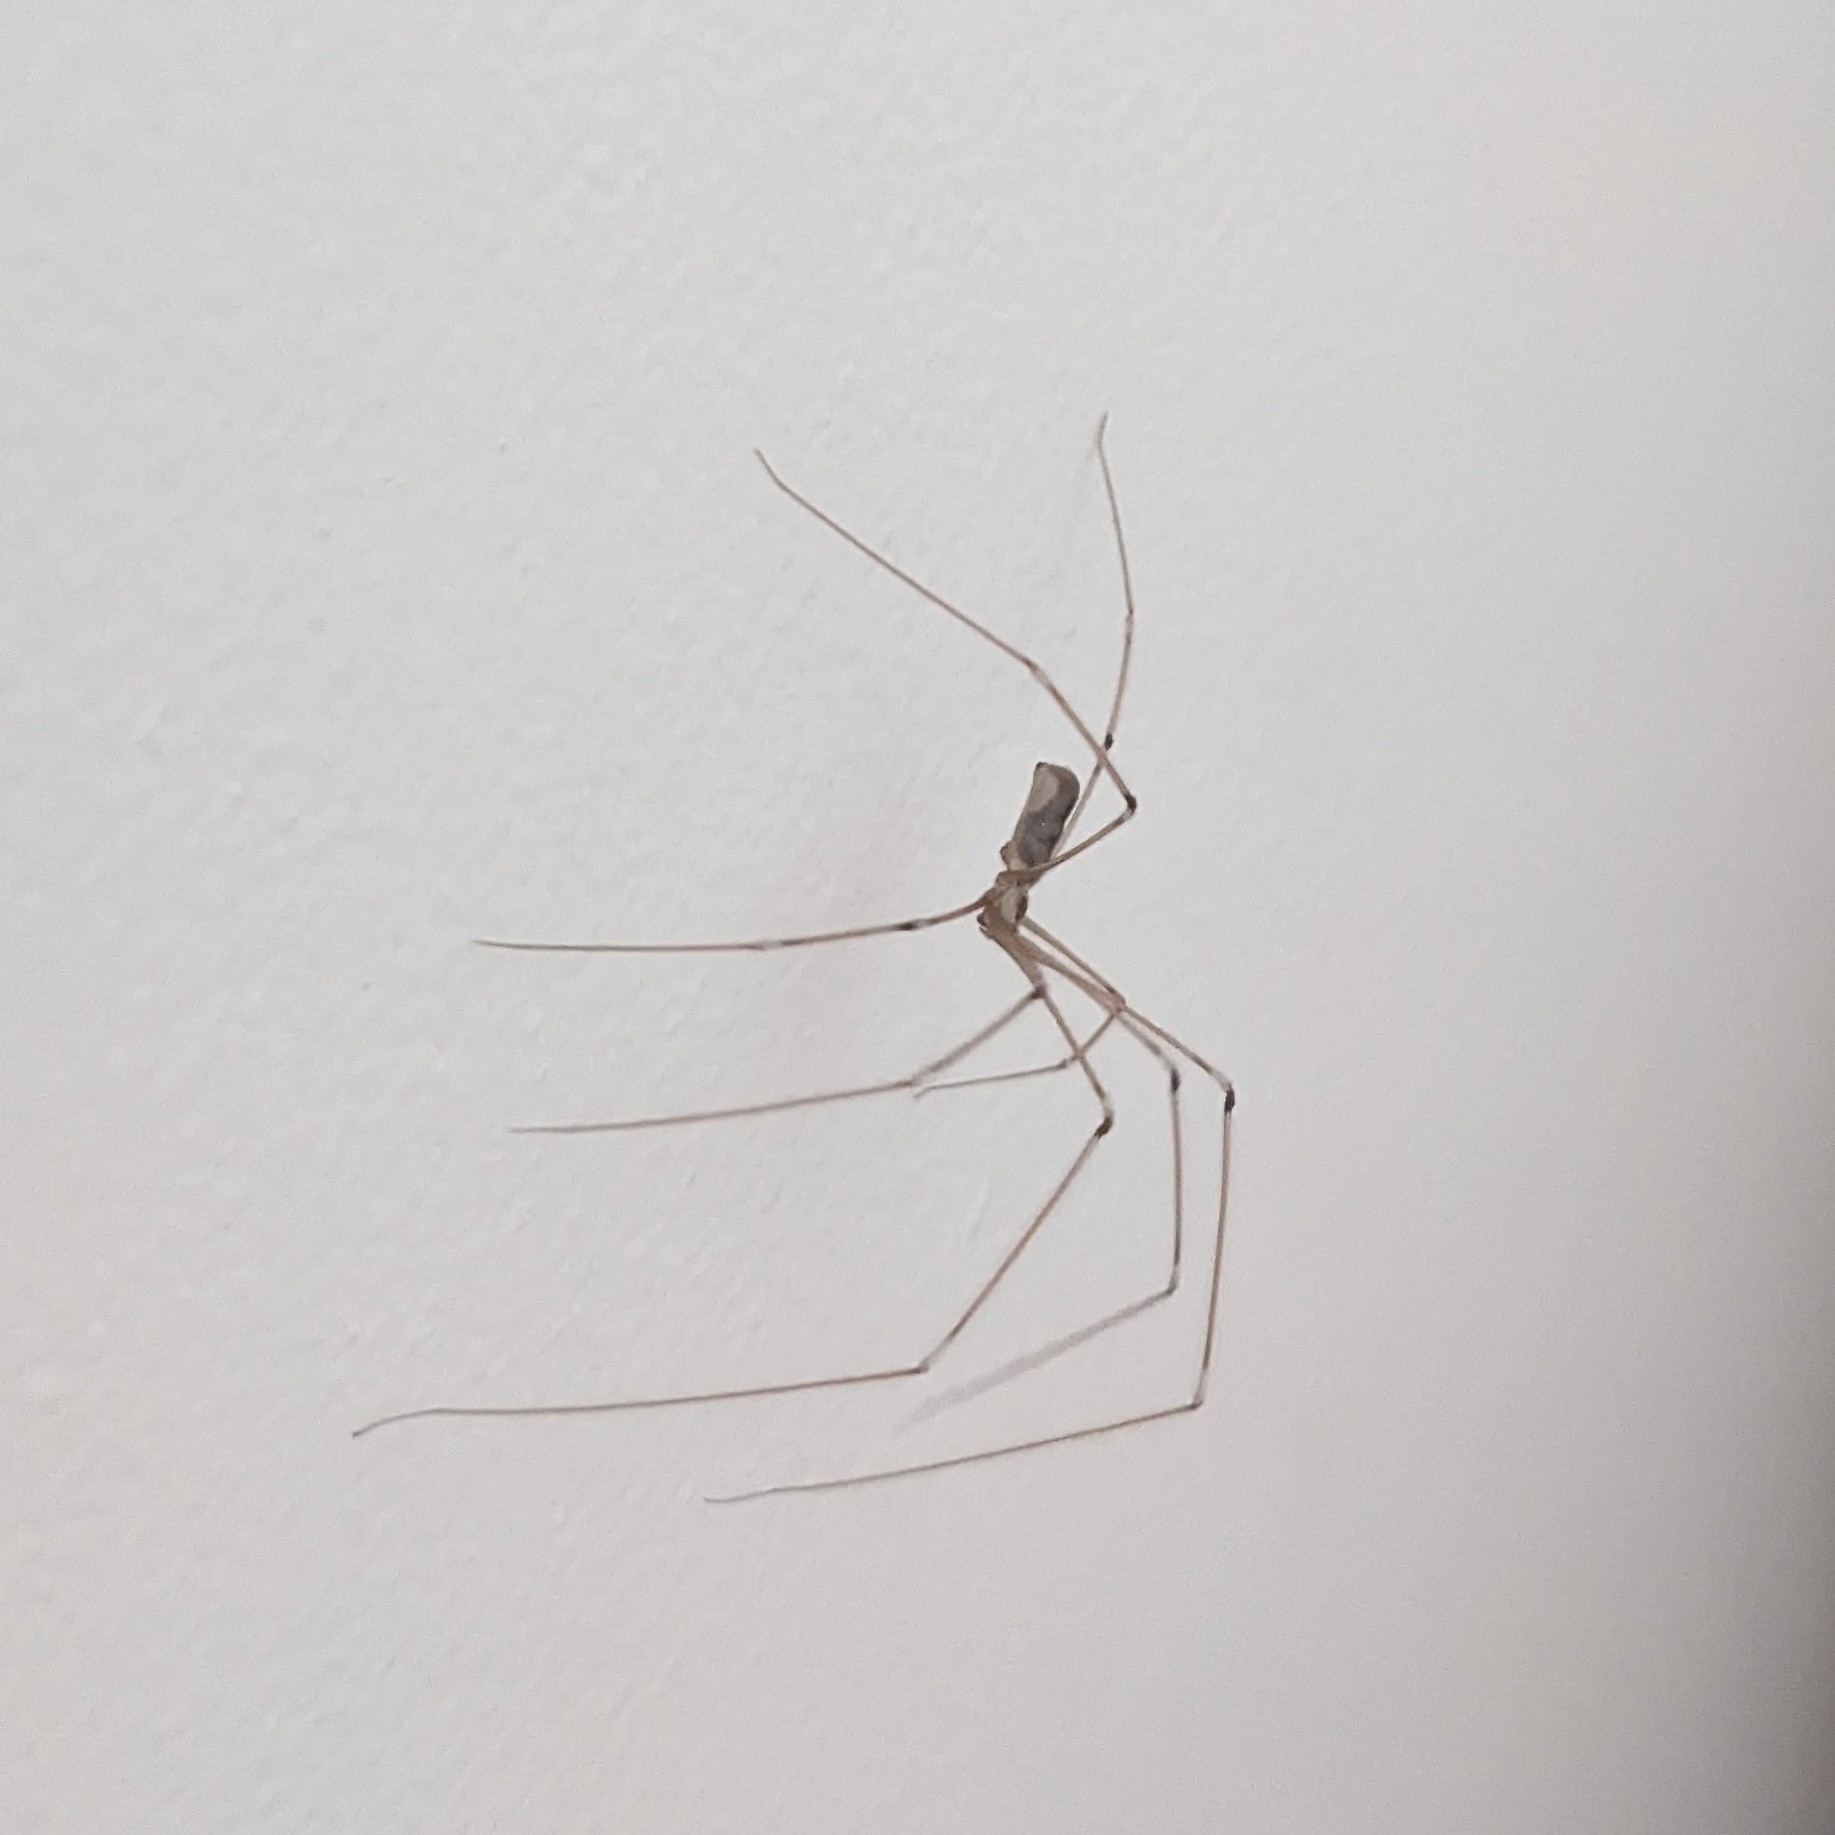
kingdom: Animalia
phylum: Arthropoda
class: Arachnida
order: Araneae
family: Pholcidae
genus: Pholcus
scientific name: Pholcus phalangioides
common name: Longbodied cellar spider
